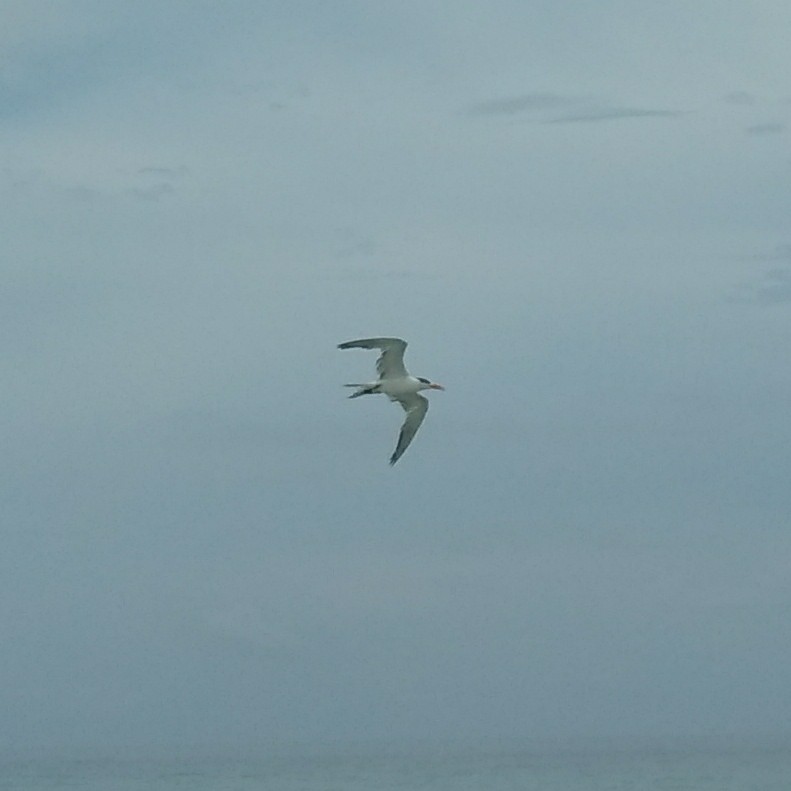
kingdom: Animalia
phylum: Chordata
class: Aves
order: Charadriiformes
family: Laridae
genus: Thalasseus
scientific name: Thalasseus maximus
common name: Royal tern
